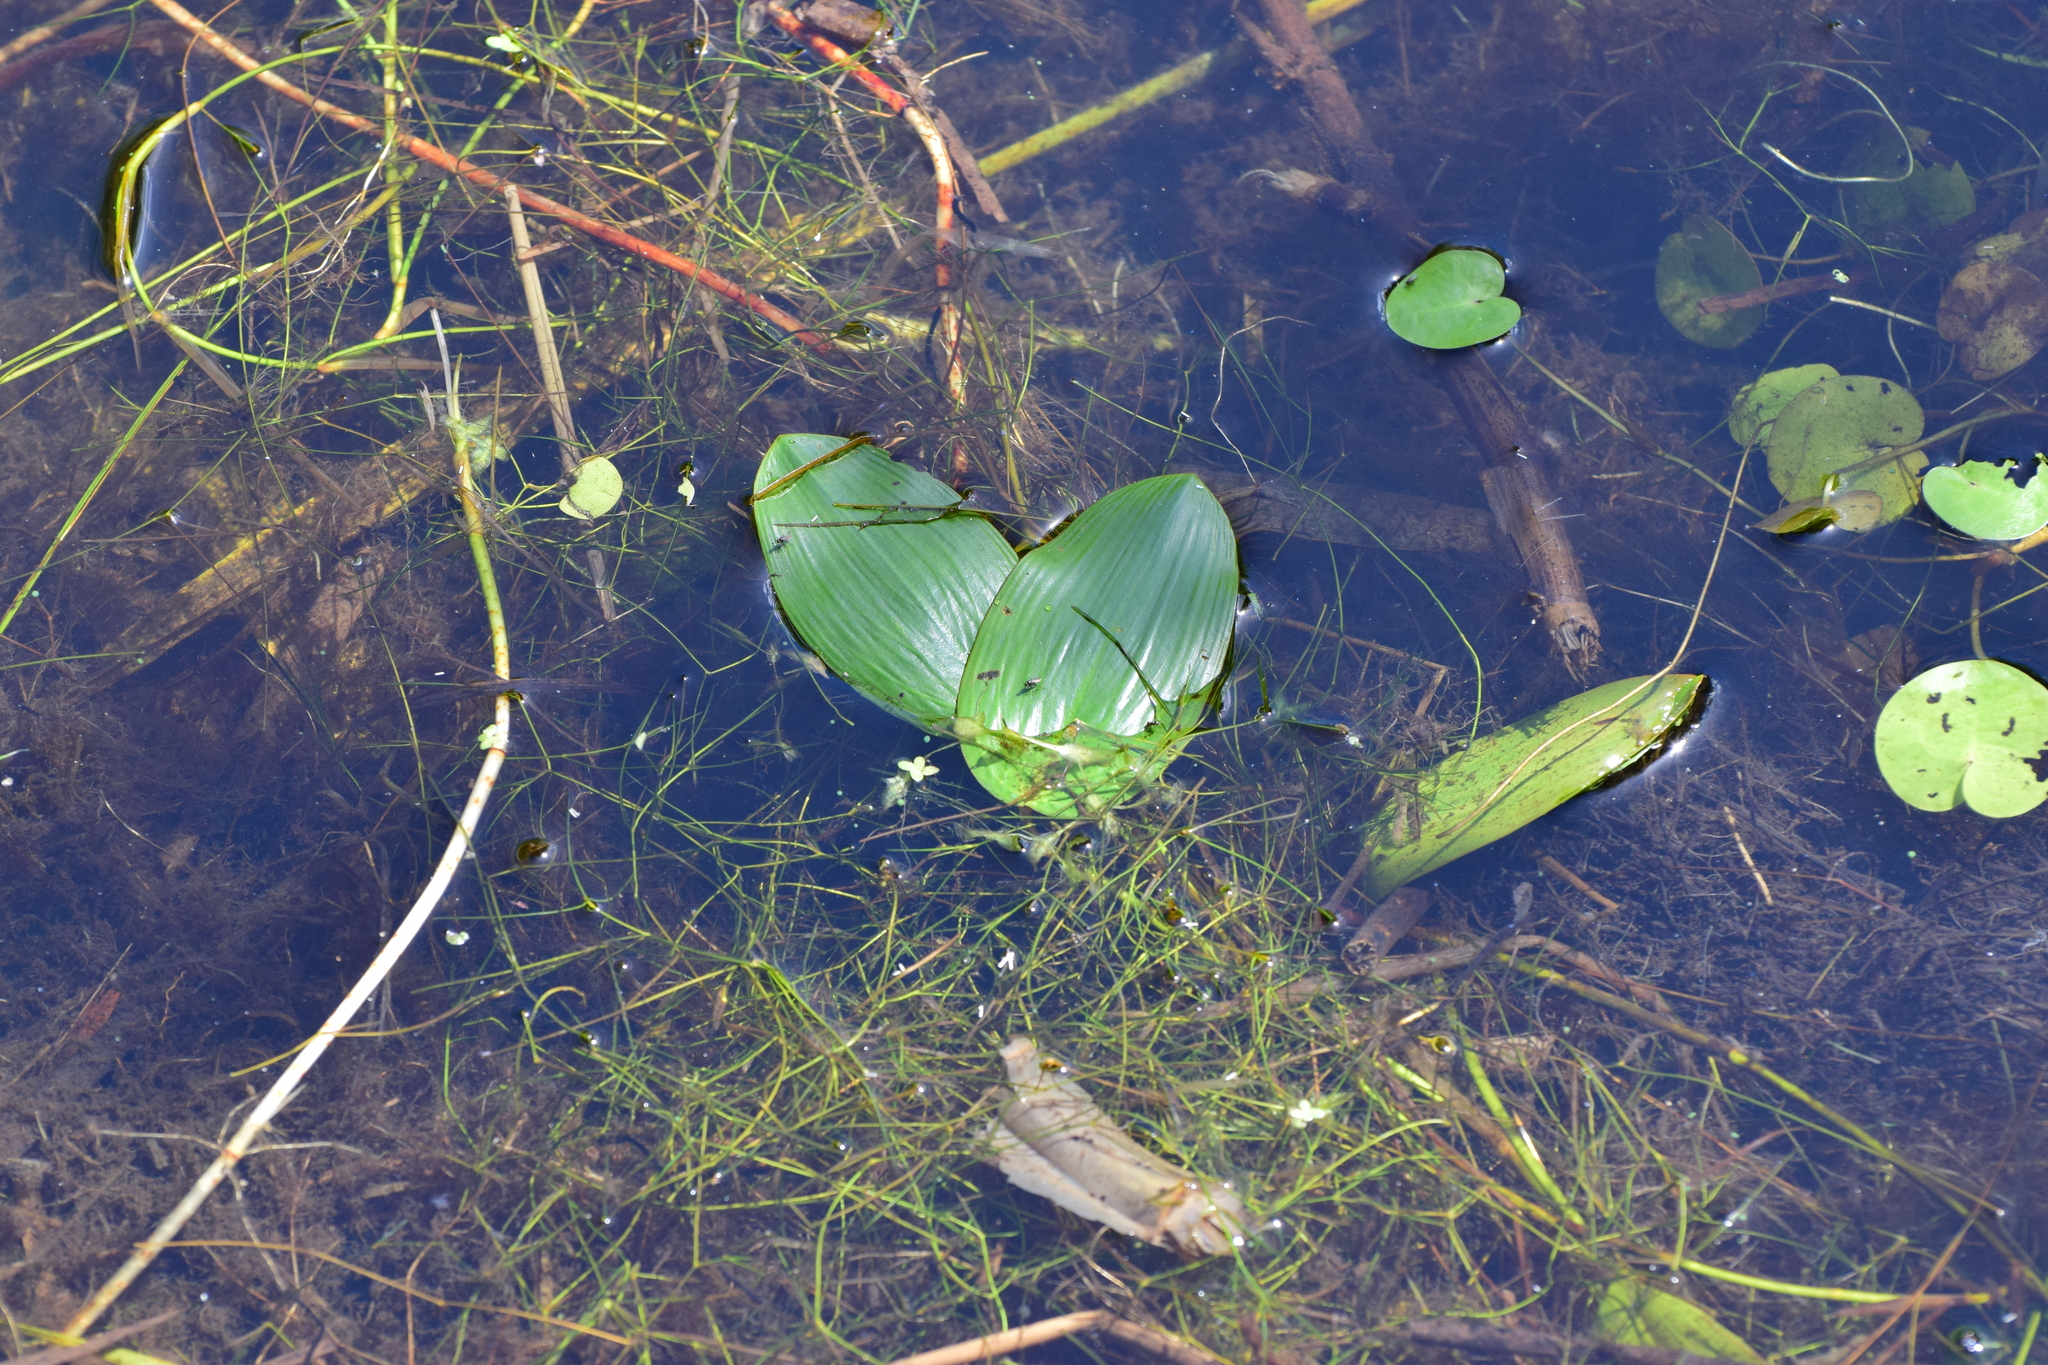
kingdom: Plantae
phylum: Tracheophyta
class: Liliopsida
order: Alismatales
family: Potamogetonaceae
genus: Potamogeton
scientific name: Potamogeton natans
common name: Broad-leaved pondweed
